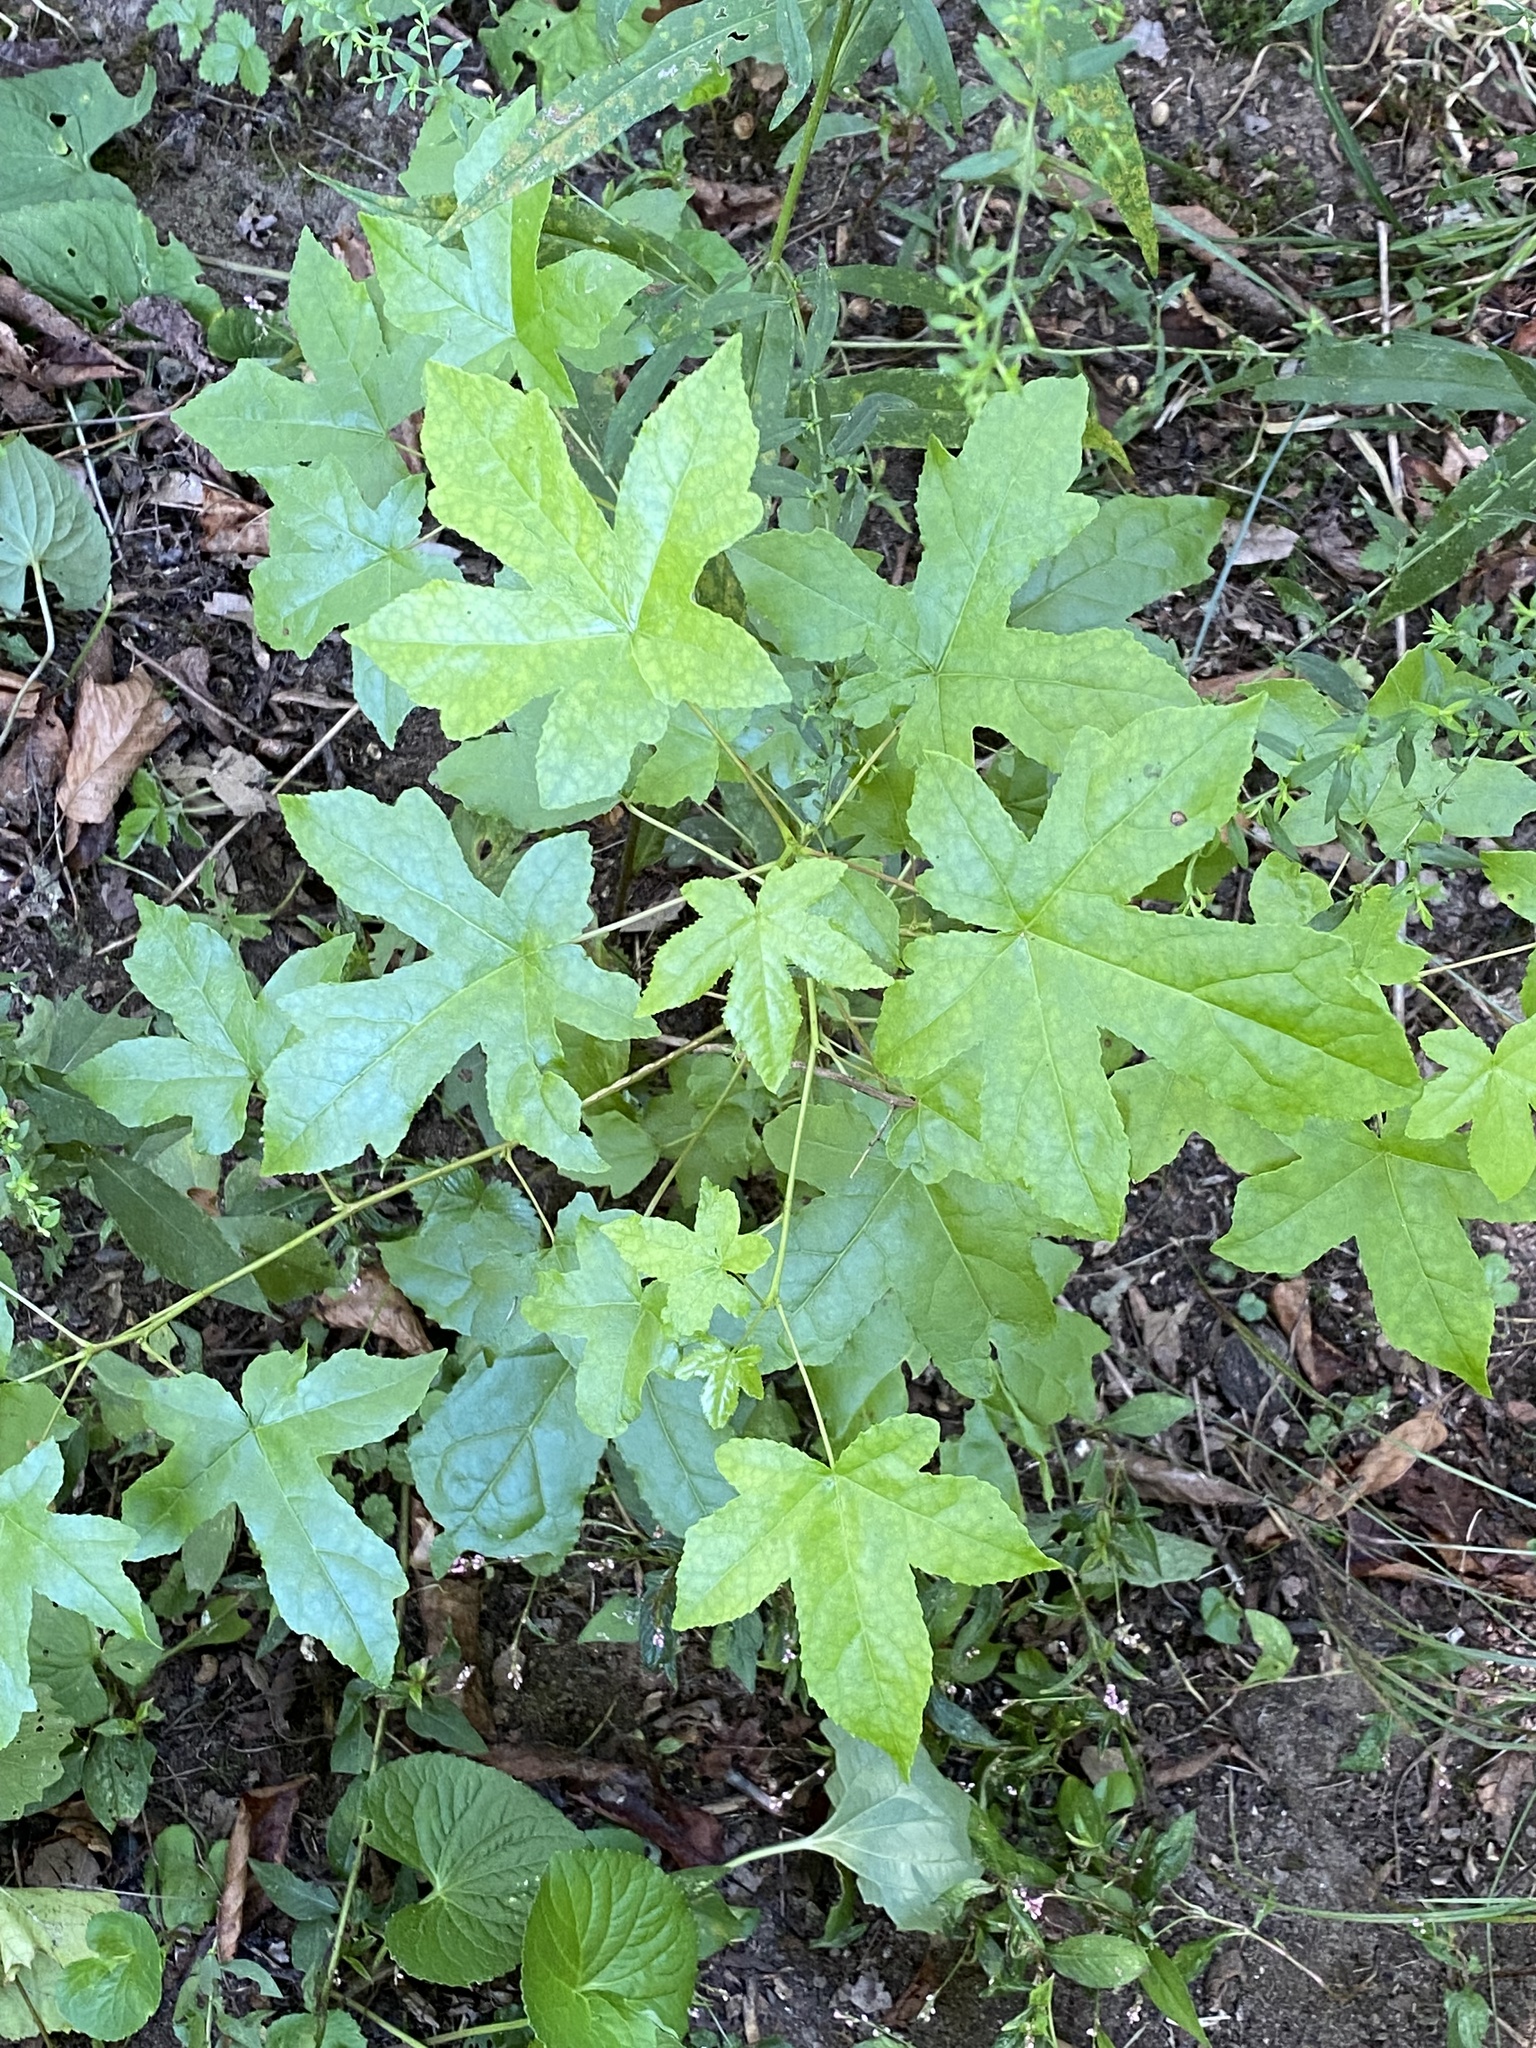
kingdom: Plantae
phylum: Tracheophyta
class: Magnoliopsida
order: Saxifragales
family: Altingiaceae
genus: Liquidambar
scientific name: Liquidambar styraciflua
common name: Sweet gum
